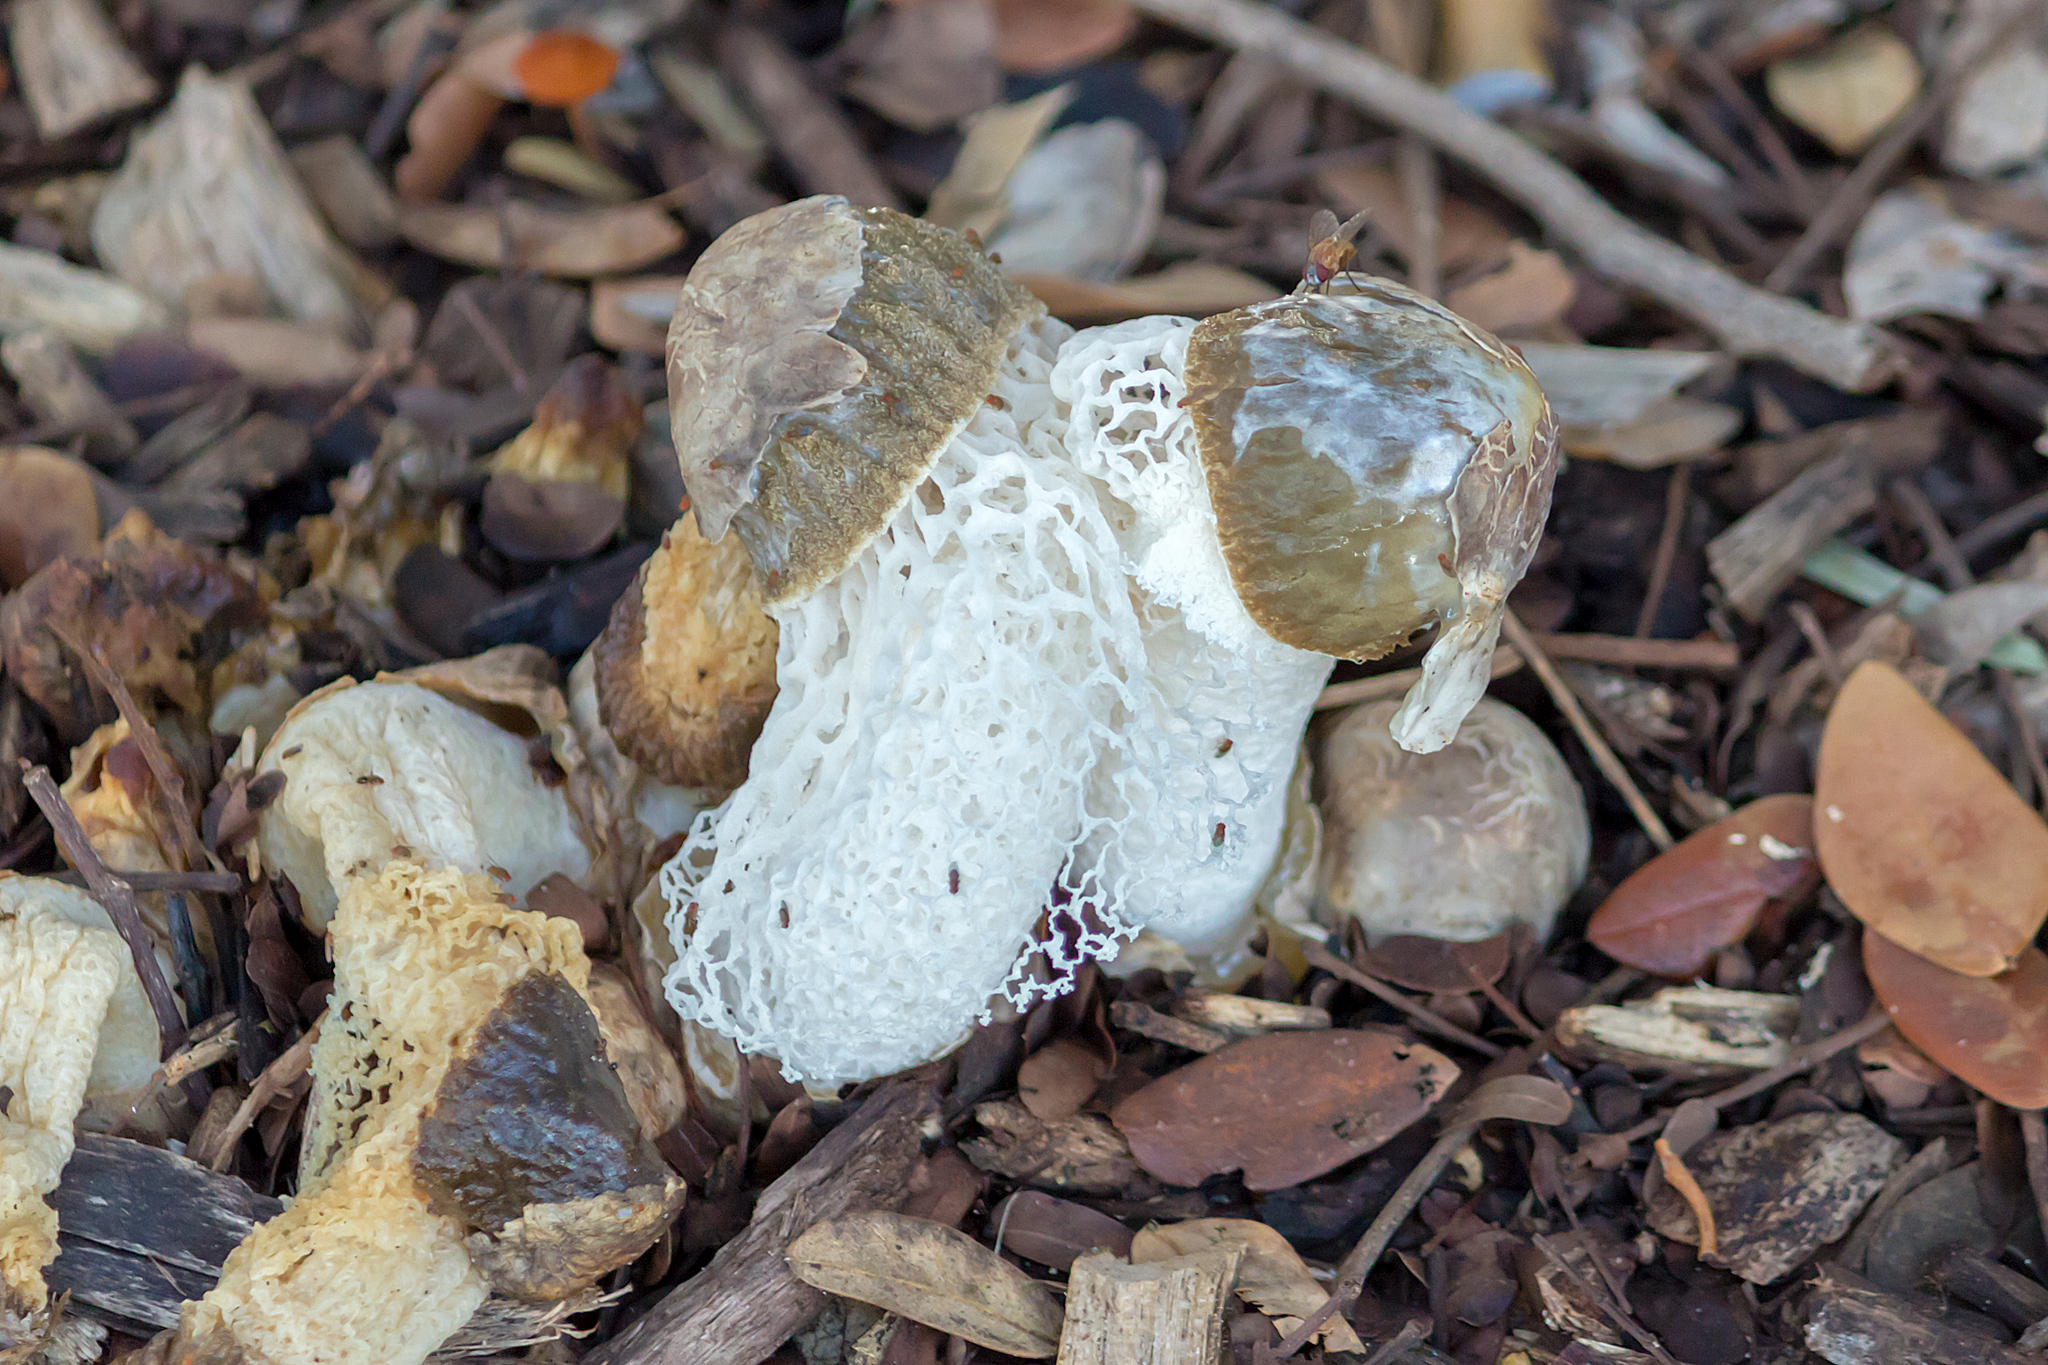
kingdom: Fungi
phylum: Basidiomycota
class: Agaricomycetes
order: Phallales
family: Phallaceae
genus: Phallus
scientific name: Phallus merulinus
